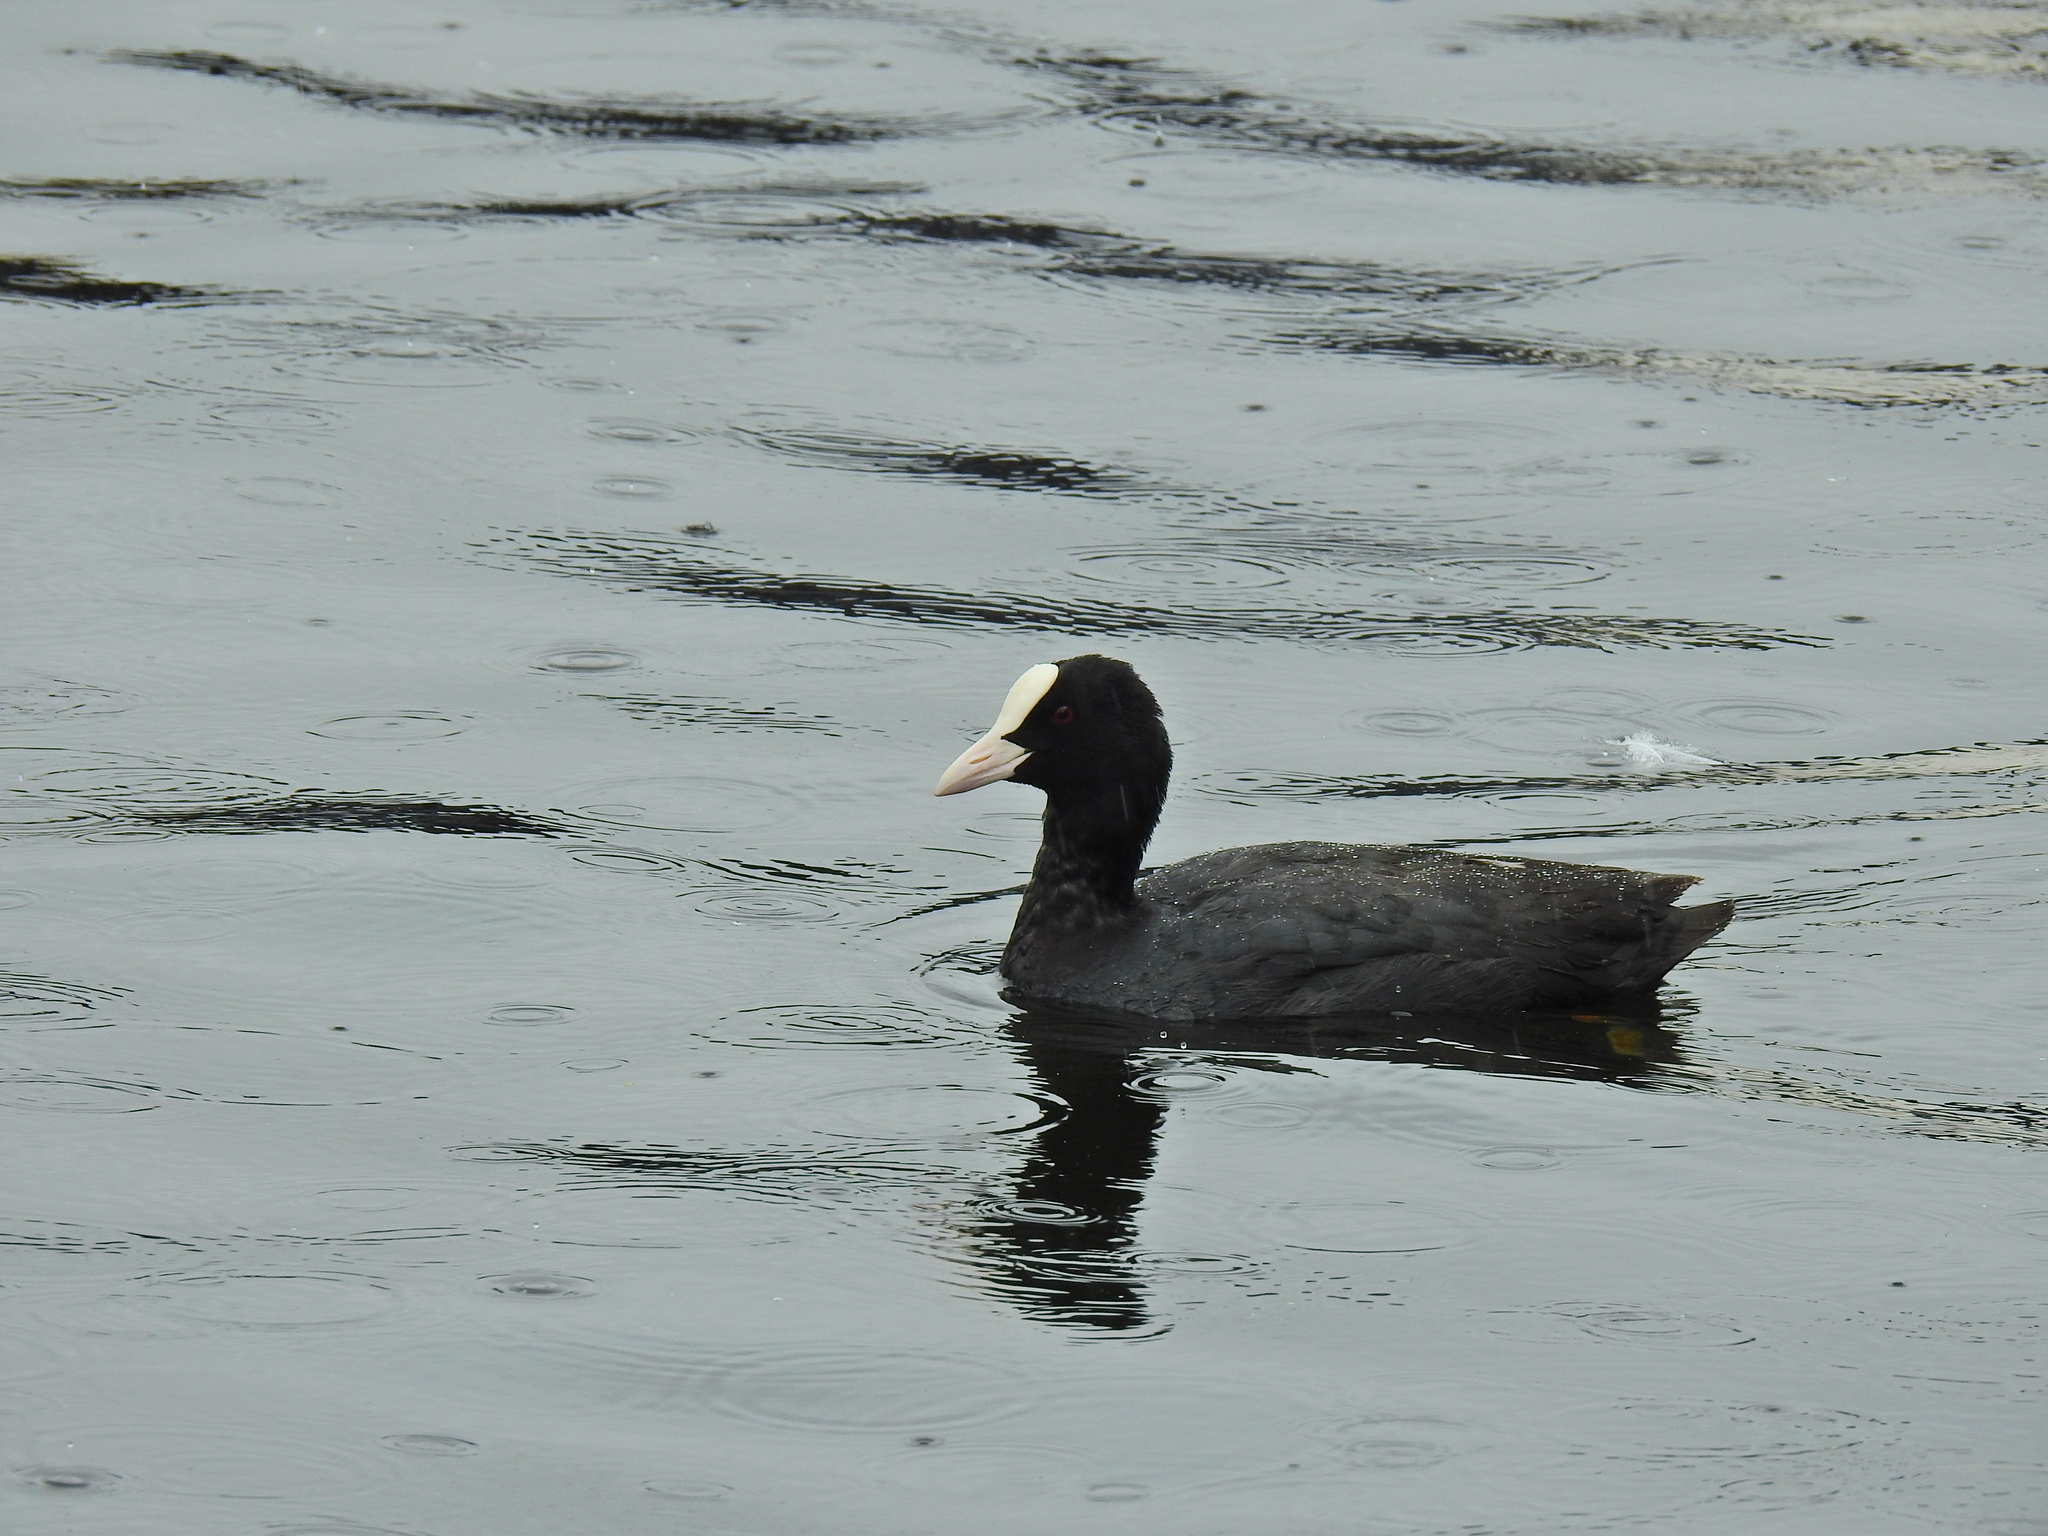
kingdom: Animalia
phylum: Chordata
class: Aves
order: Gruiformes
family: Rallidae
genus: Fulica
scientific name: Fulica atra
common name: Eurasian coot
